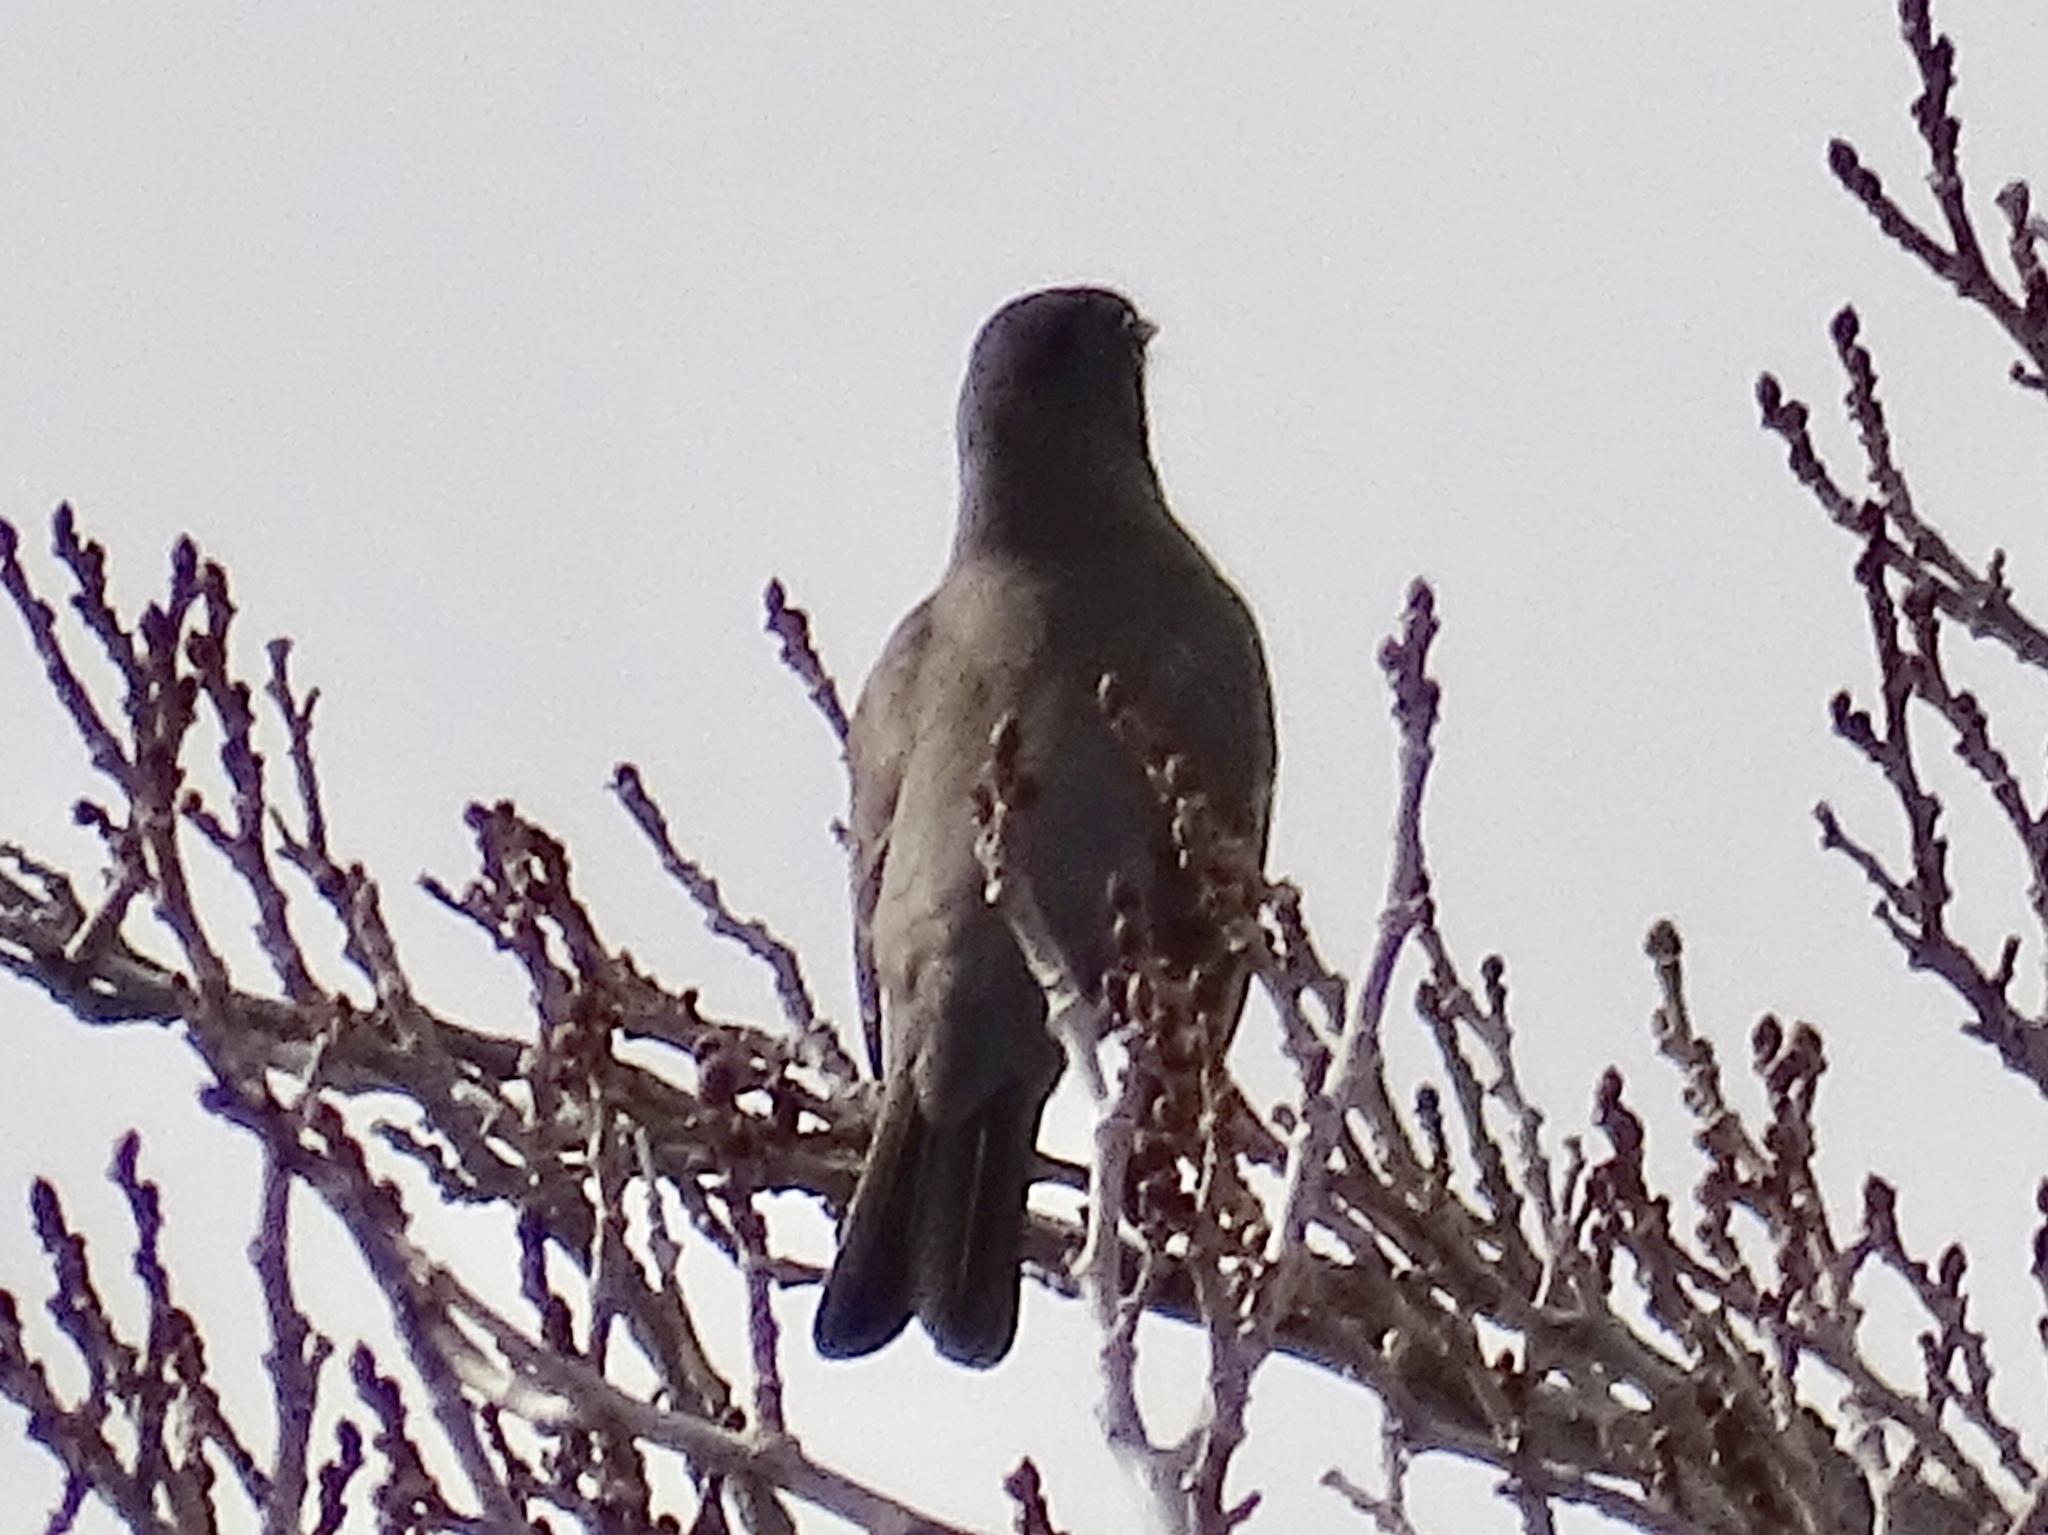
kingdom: Animalia
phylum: Chordata
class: Aves
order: Passeriformes
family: Turdidae
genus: Turdus
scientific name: Turdus migratorius
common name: American robin
